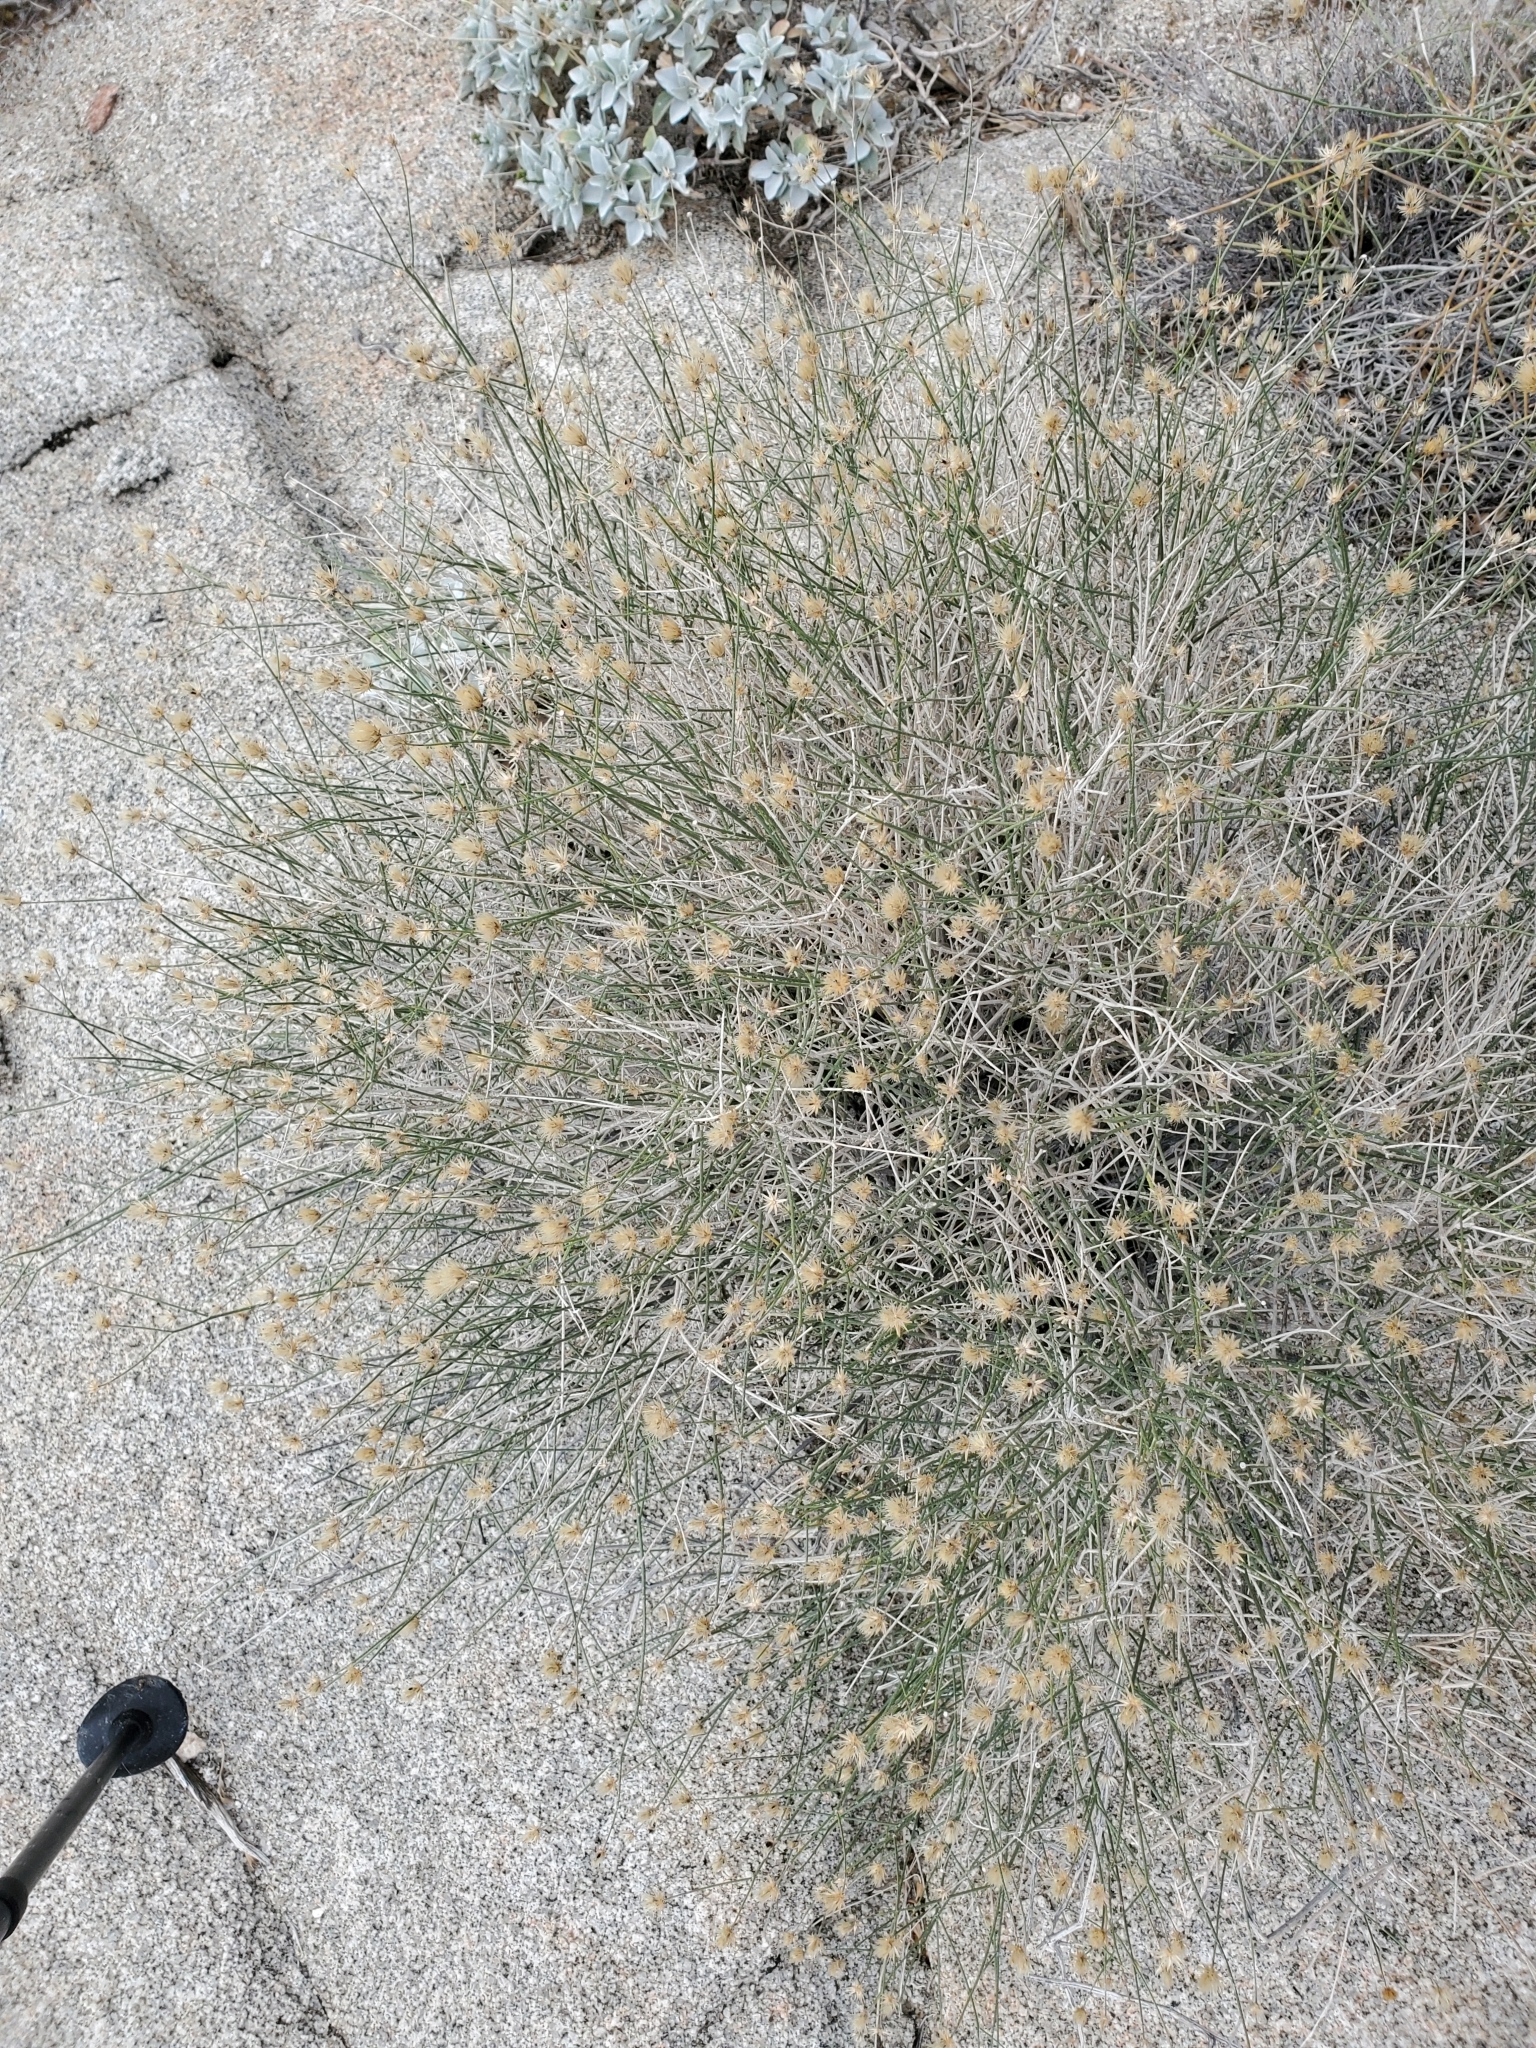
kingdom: Plantae
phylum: Tracheophyta
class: Magnoliopsida
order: Asterales
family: Asteraceae
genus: Bebbia
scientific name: Bebbia juncea
